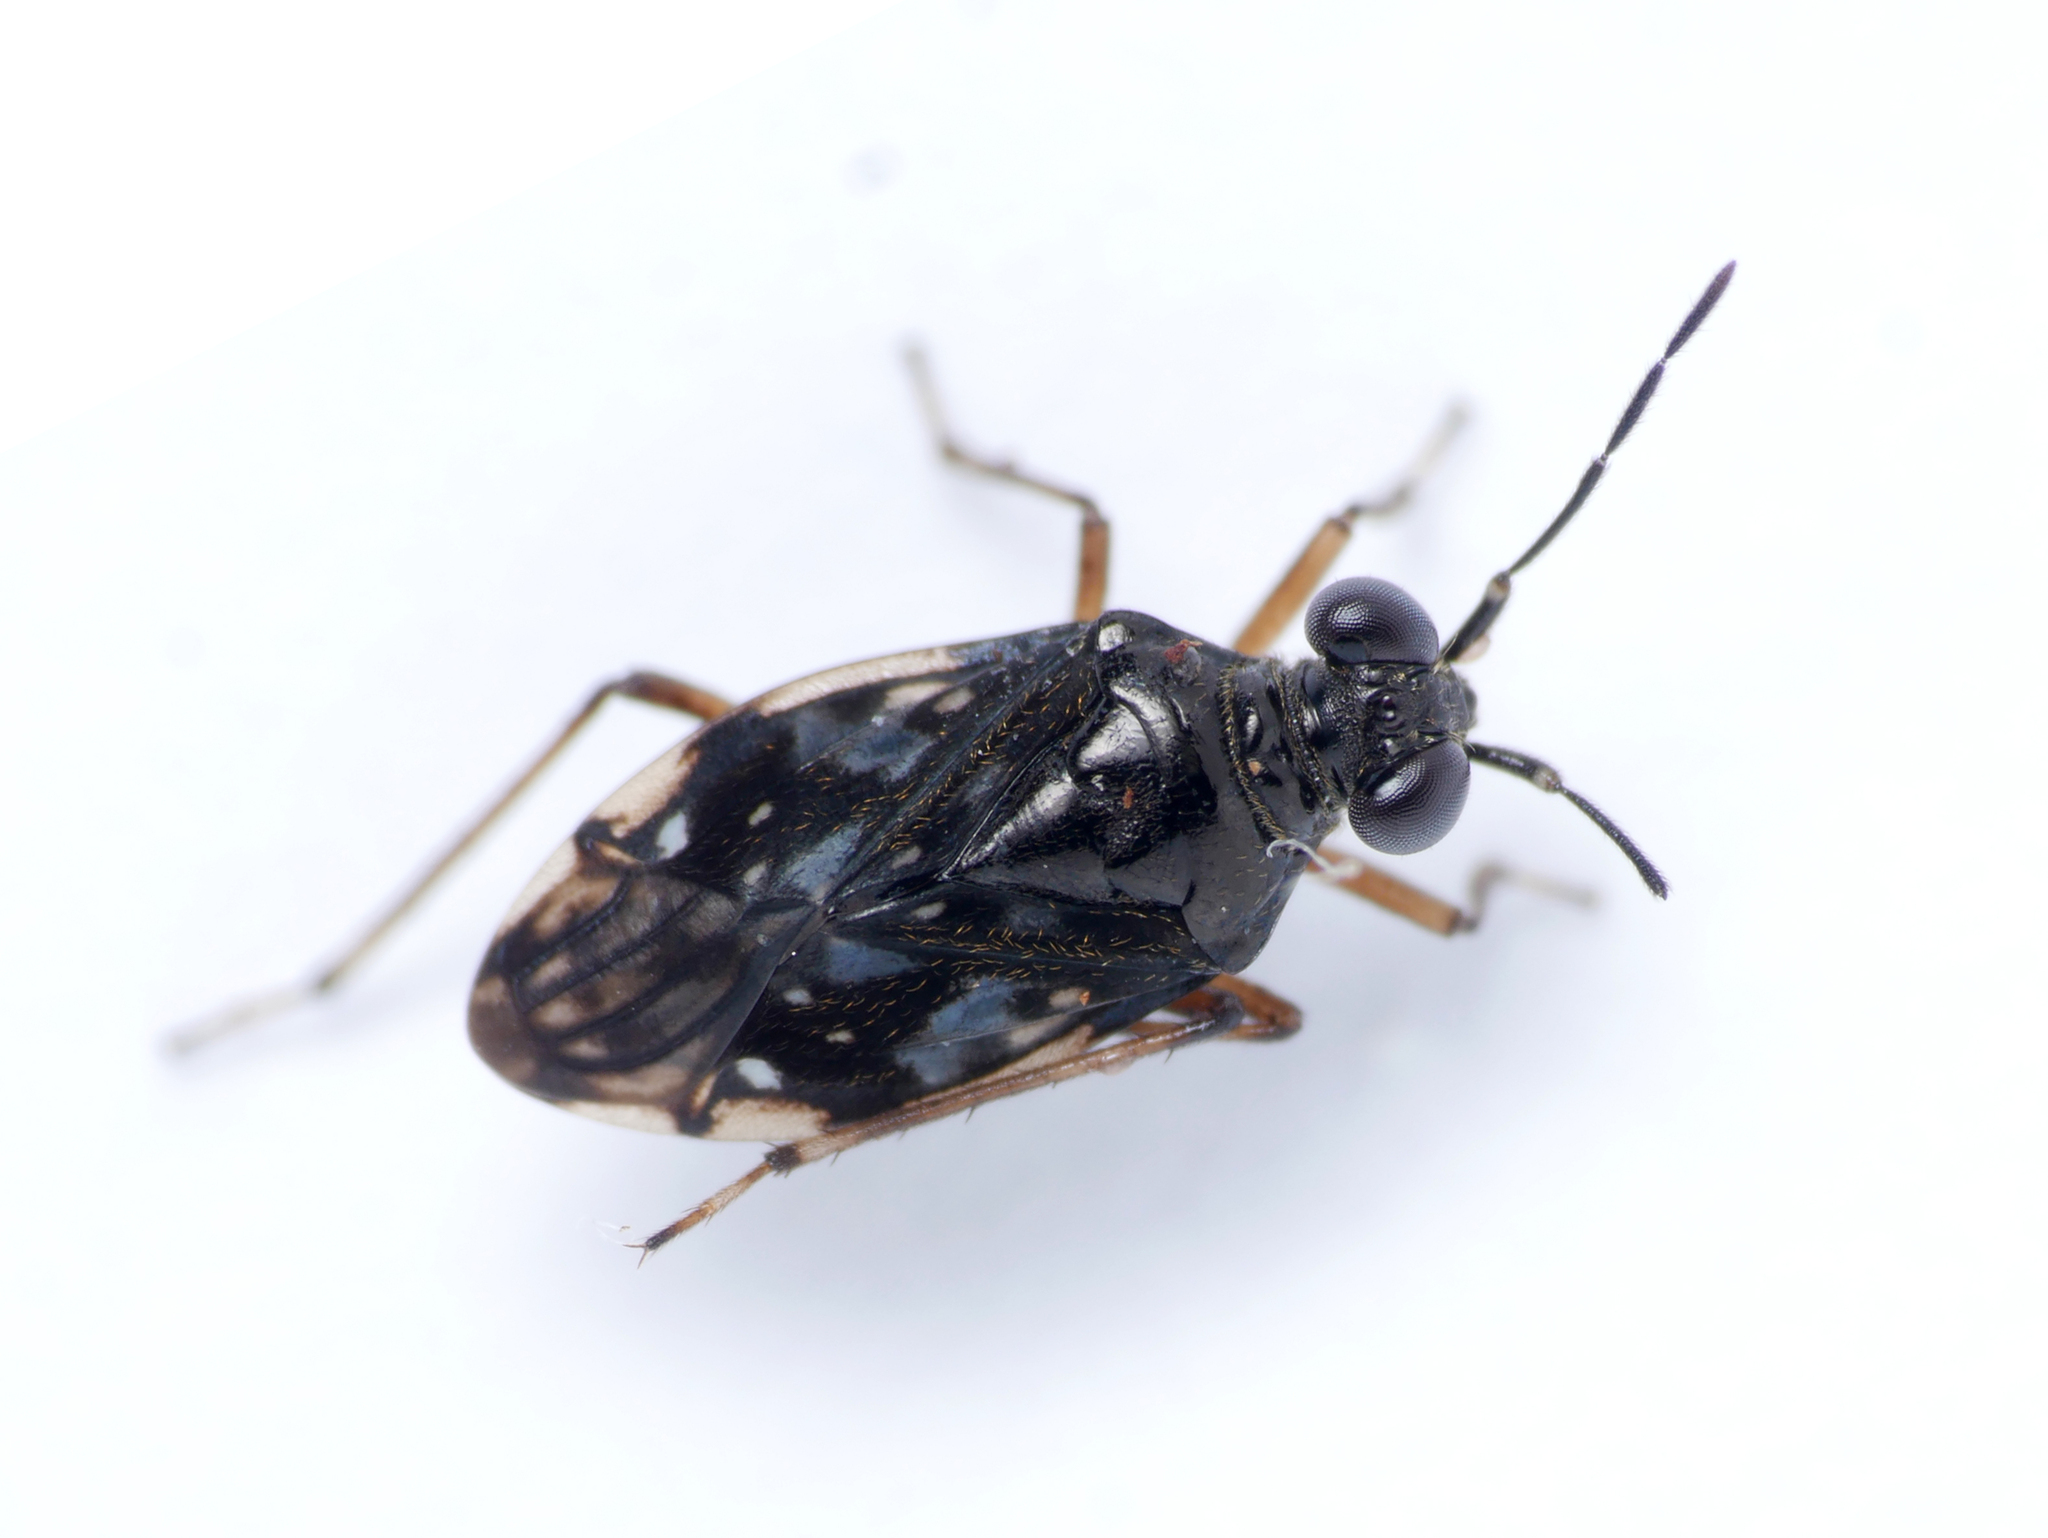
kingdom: Animalia
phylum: Arthropoda
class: Insecta
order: Hemiptera
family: Saldidae
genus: Chartoscirta
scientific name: Chartoscirta cincta
